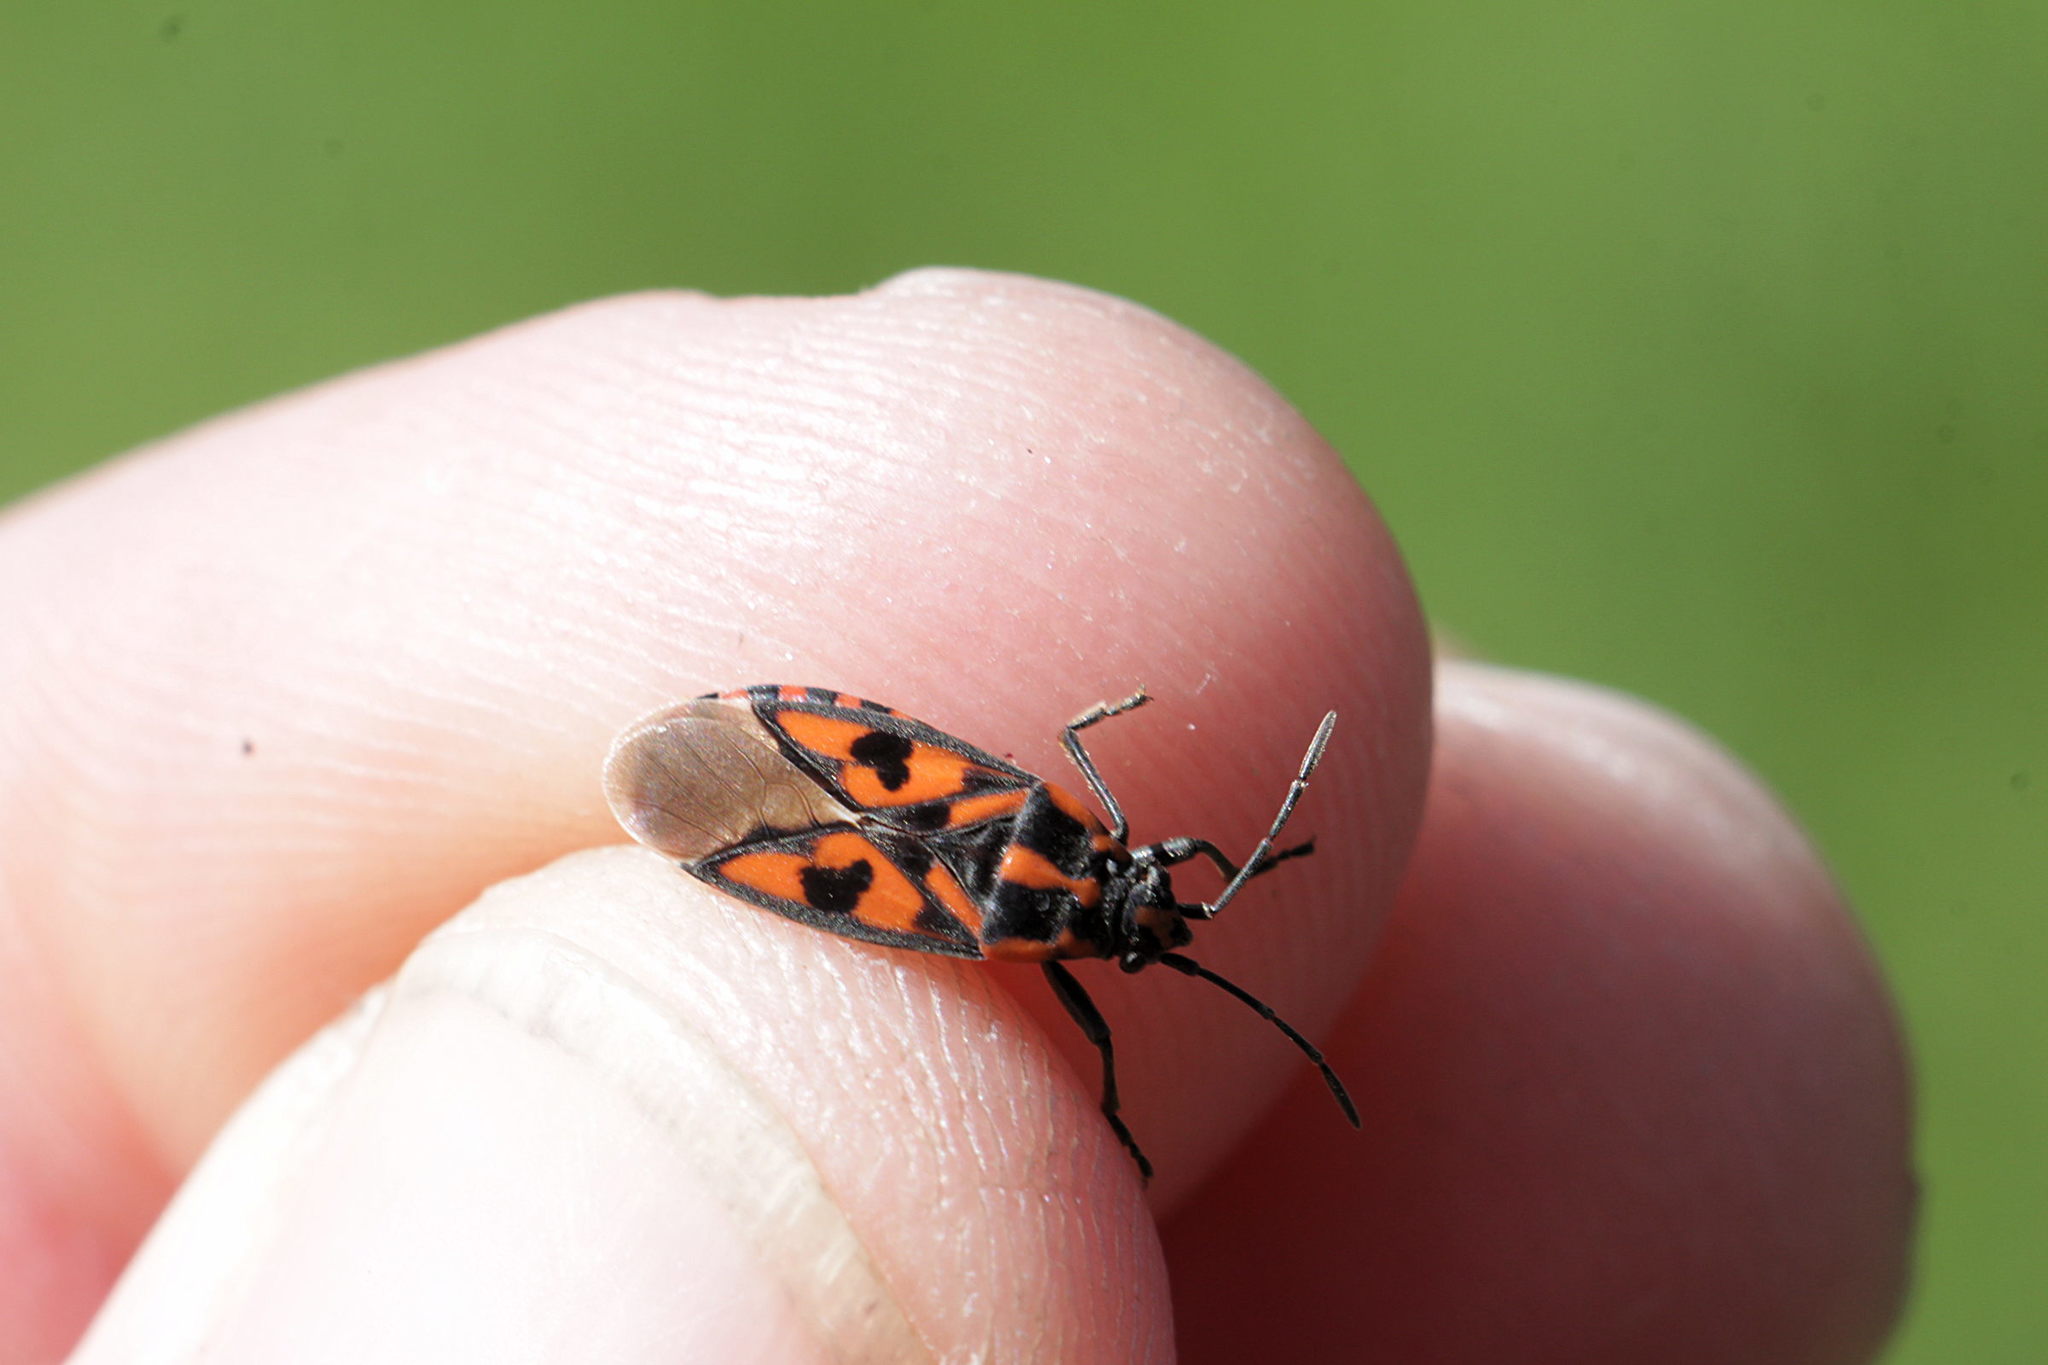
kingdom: Animalia
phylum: Arthropoda
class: Insecta
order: Hemiptera
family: Lygaeidae
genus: Spilostethus
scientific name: Spilostethus saxatilis
